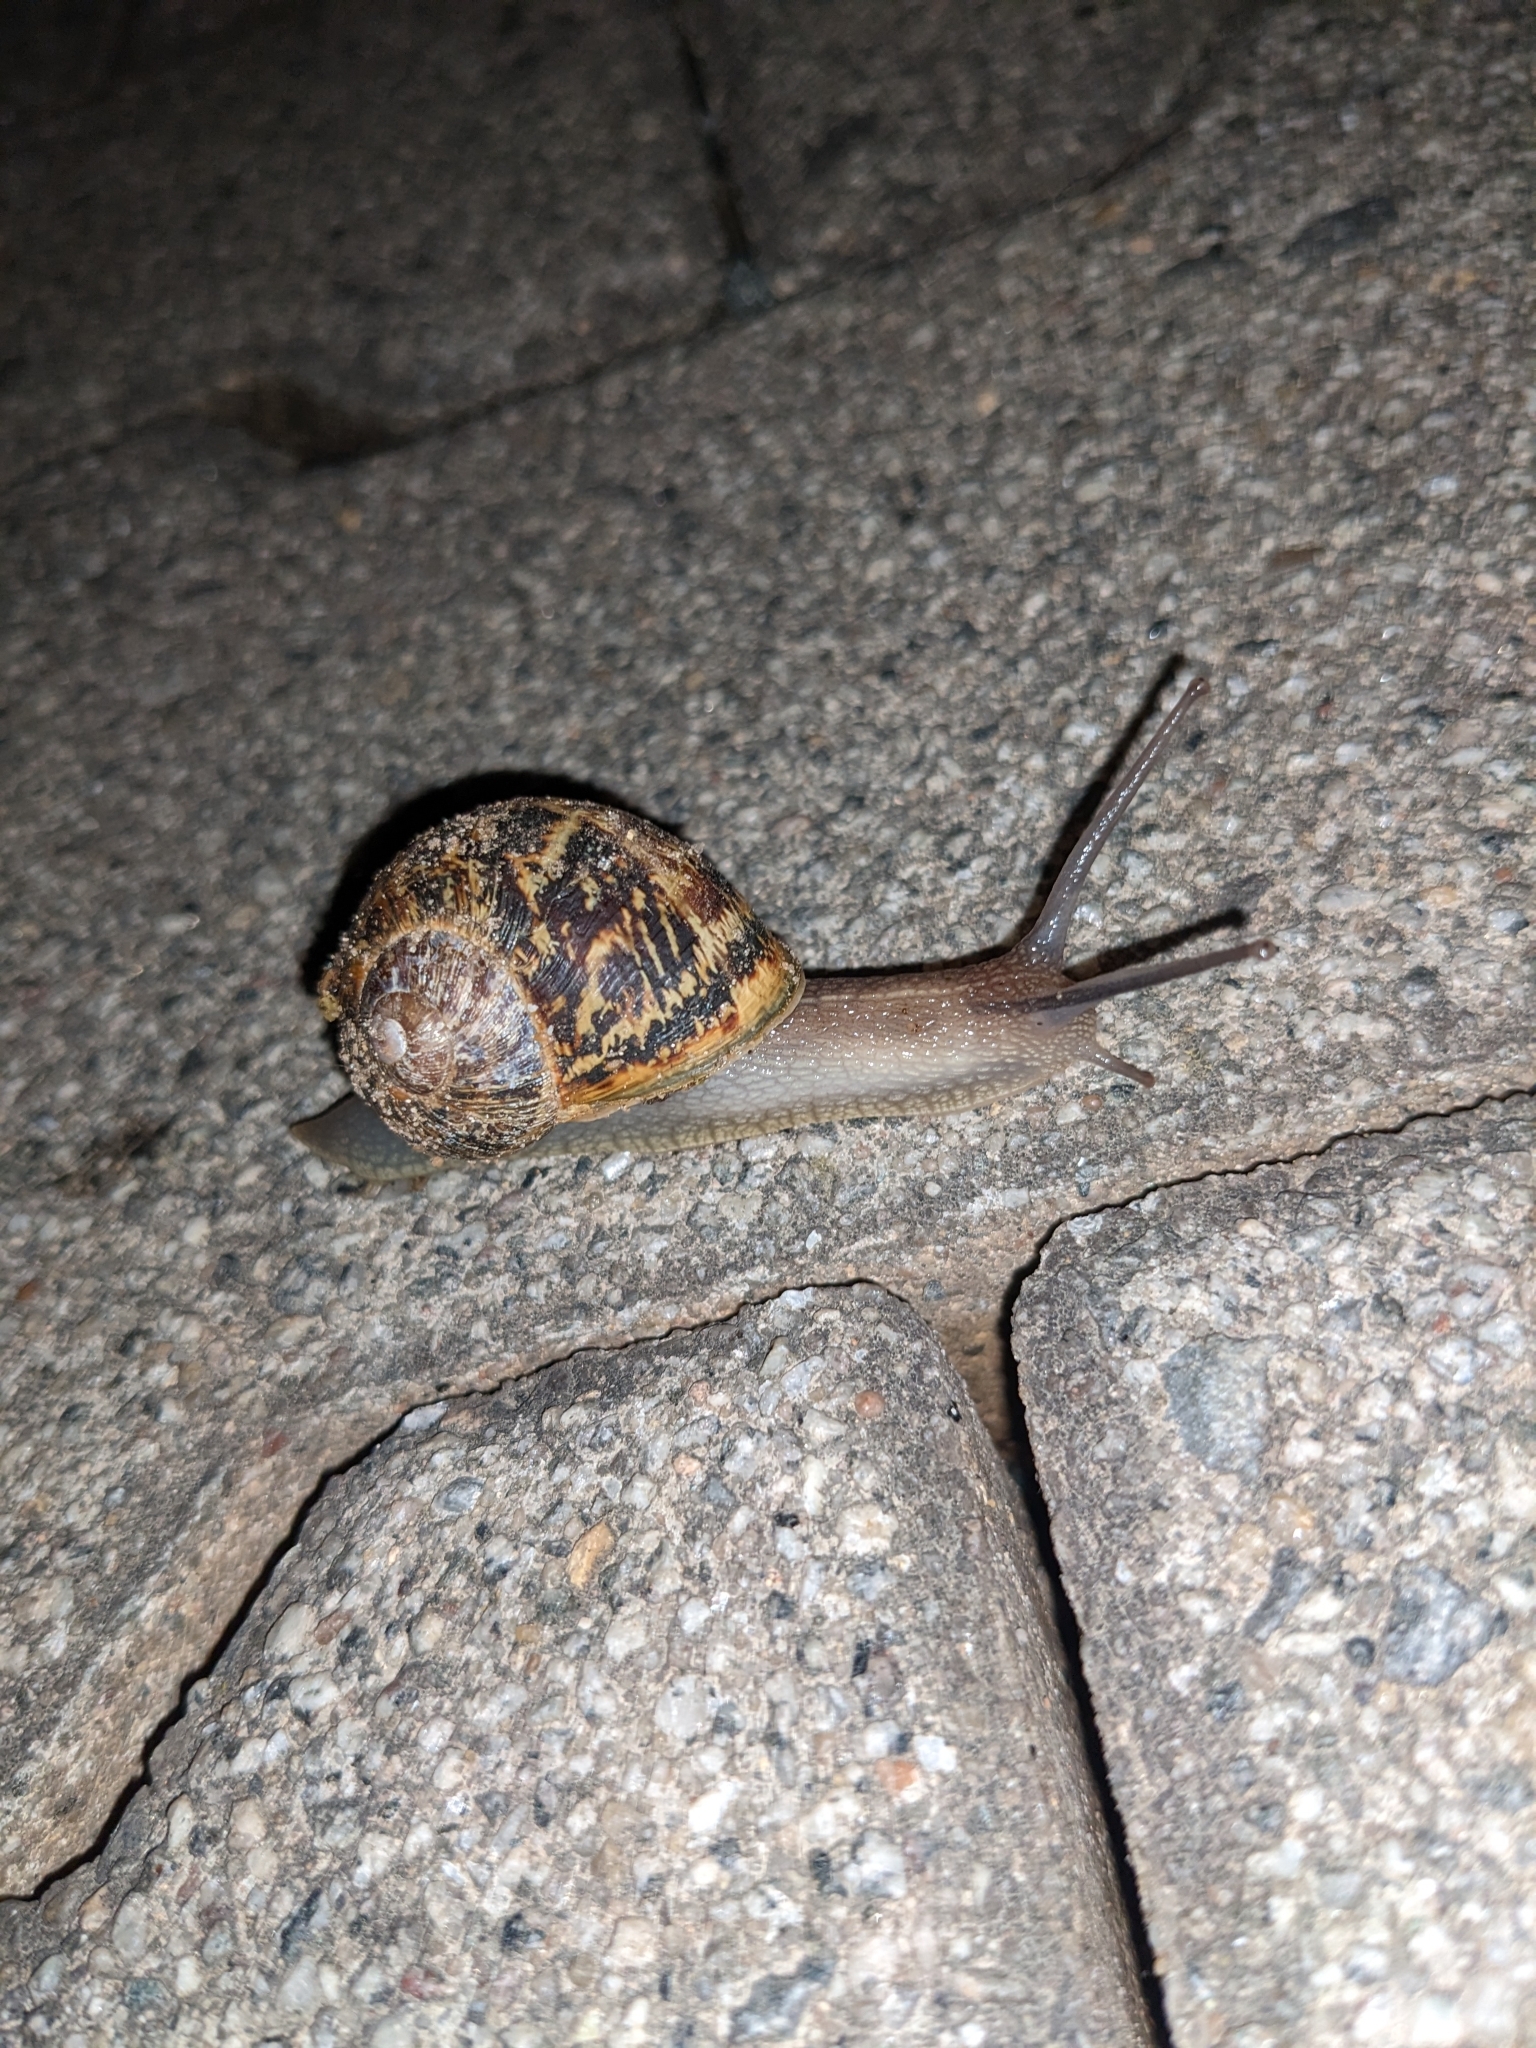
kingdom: Animalia
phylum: Mollusca
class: Gastropoda
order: Stylommatophora
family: Helicidae
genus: Cornu
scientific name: Cornu aspersum
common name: Brown garden snail
